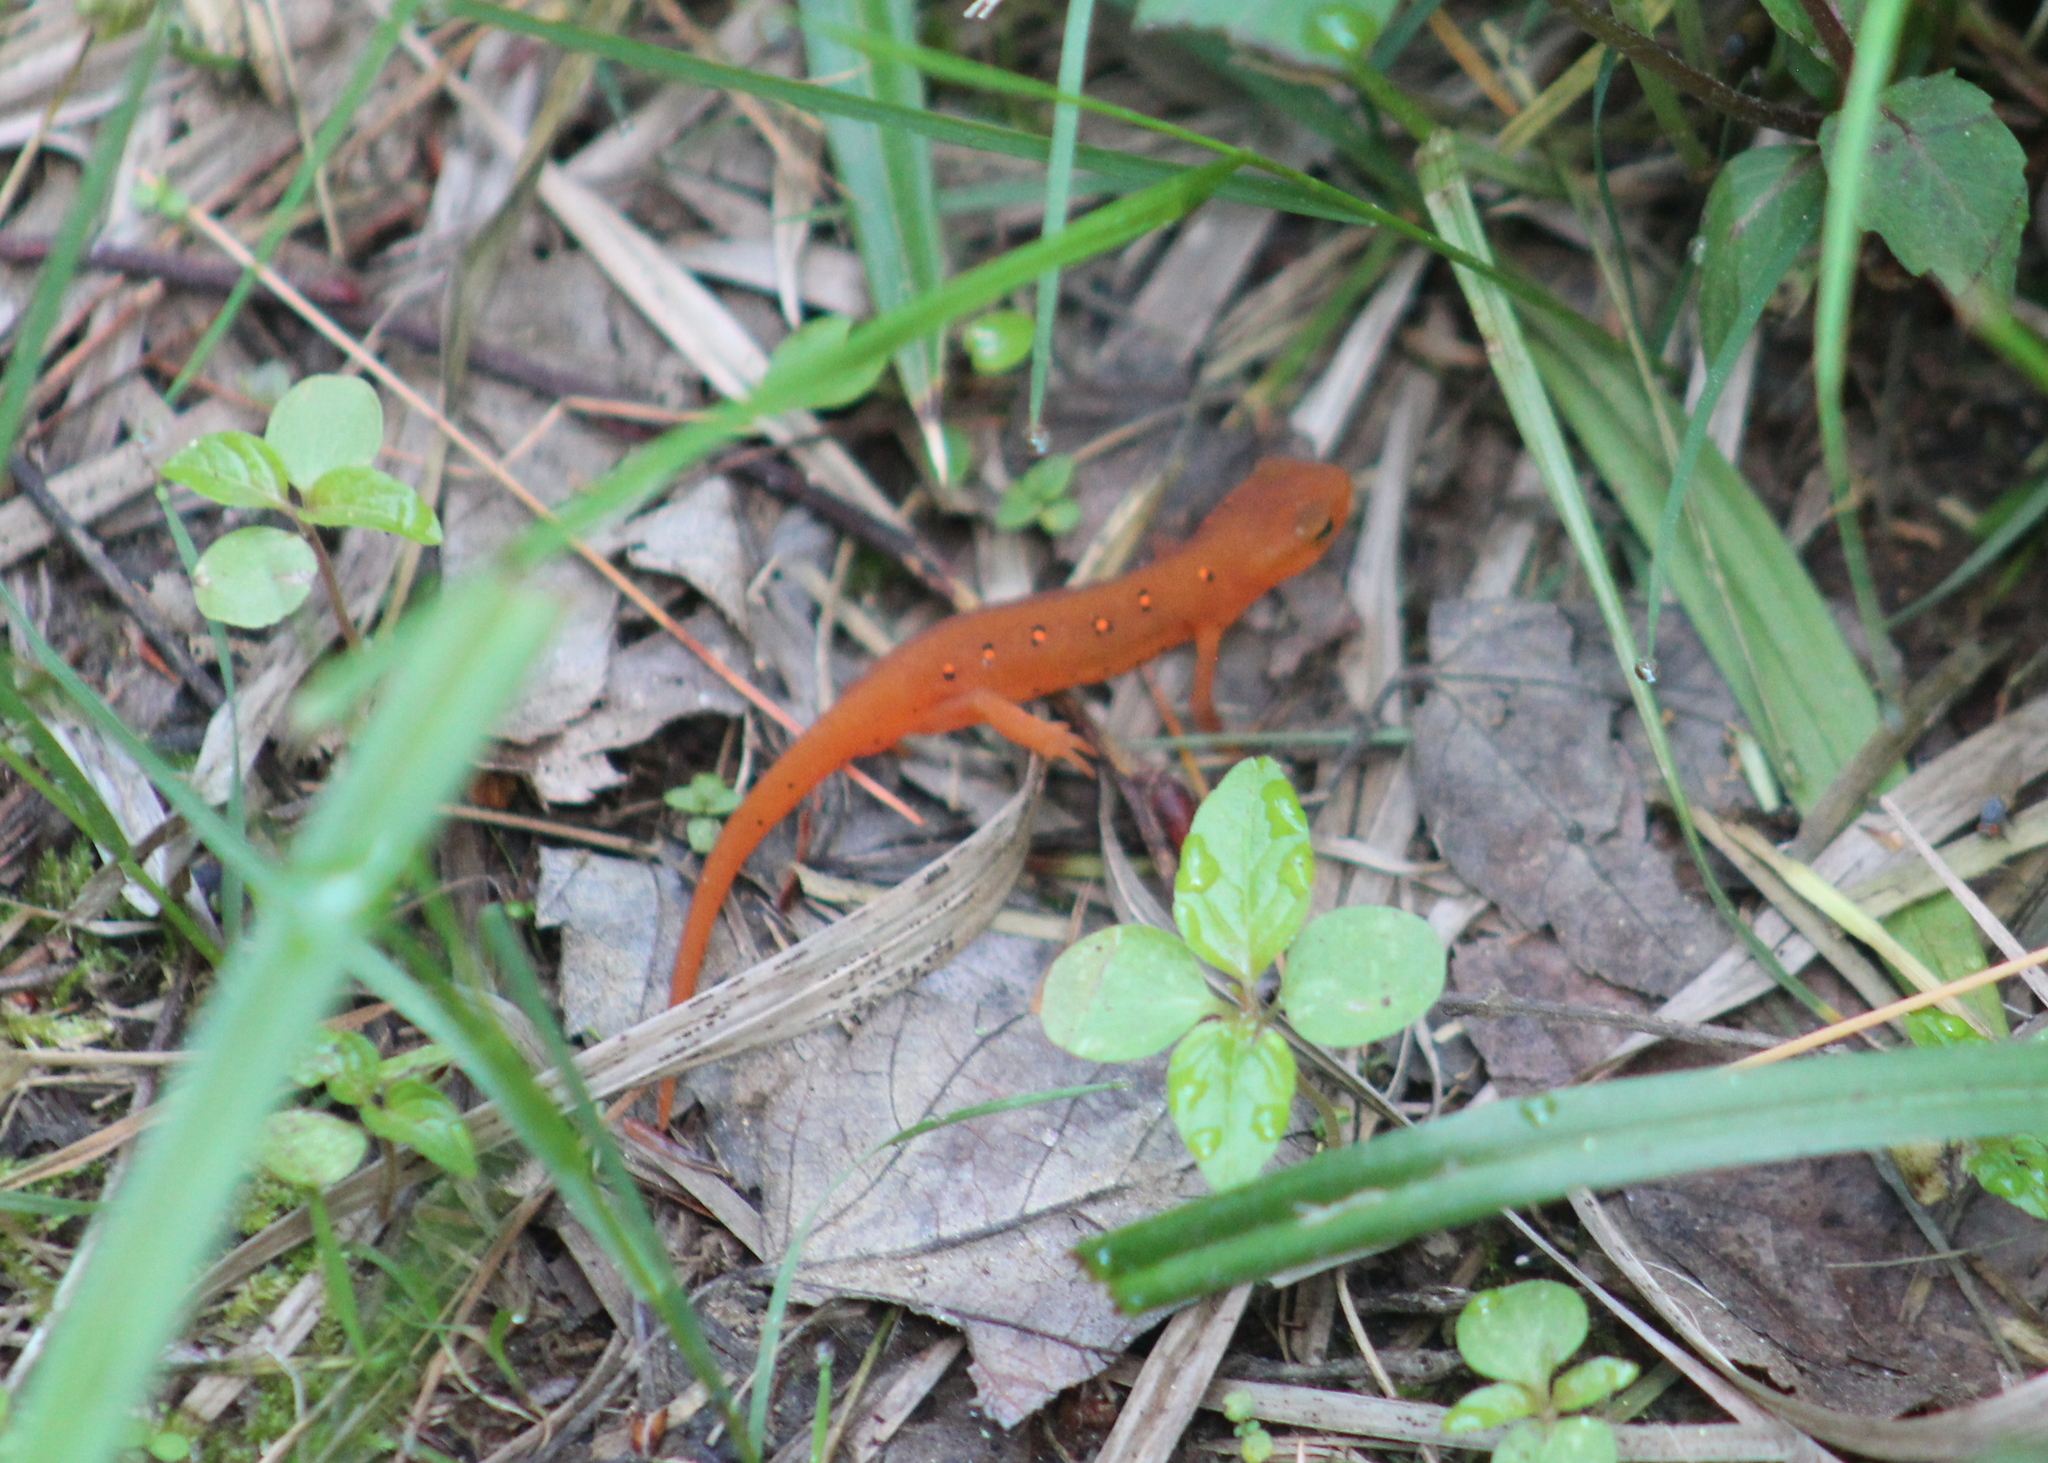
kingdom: Animalia
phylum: Chordata
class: Amphibia
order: Caudata
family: Salamandridae
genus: Notophthalmus
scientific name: Notophthalmus viridescens
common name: Eastern newt
